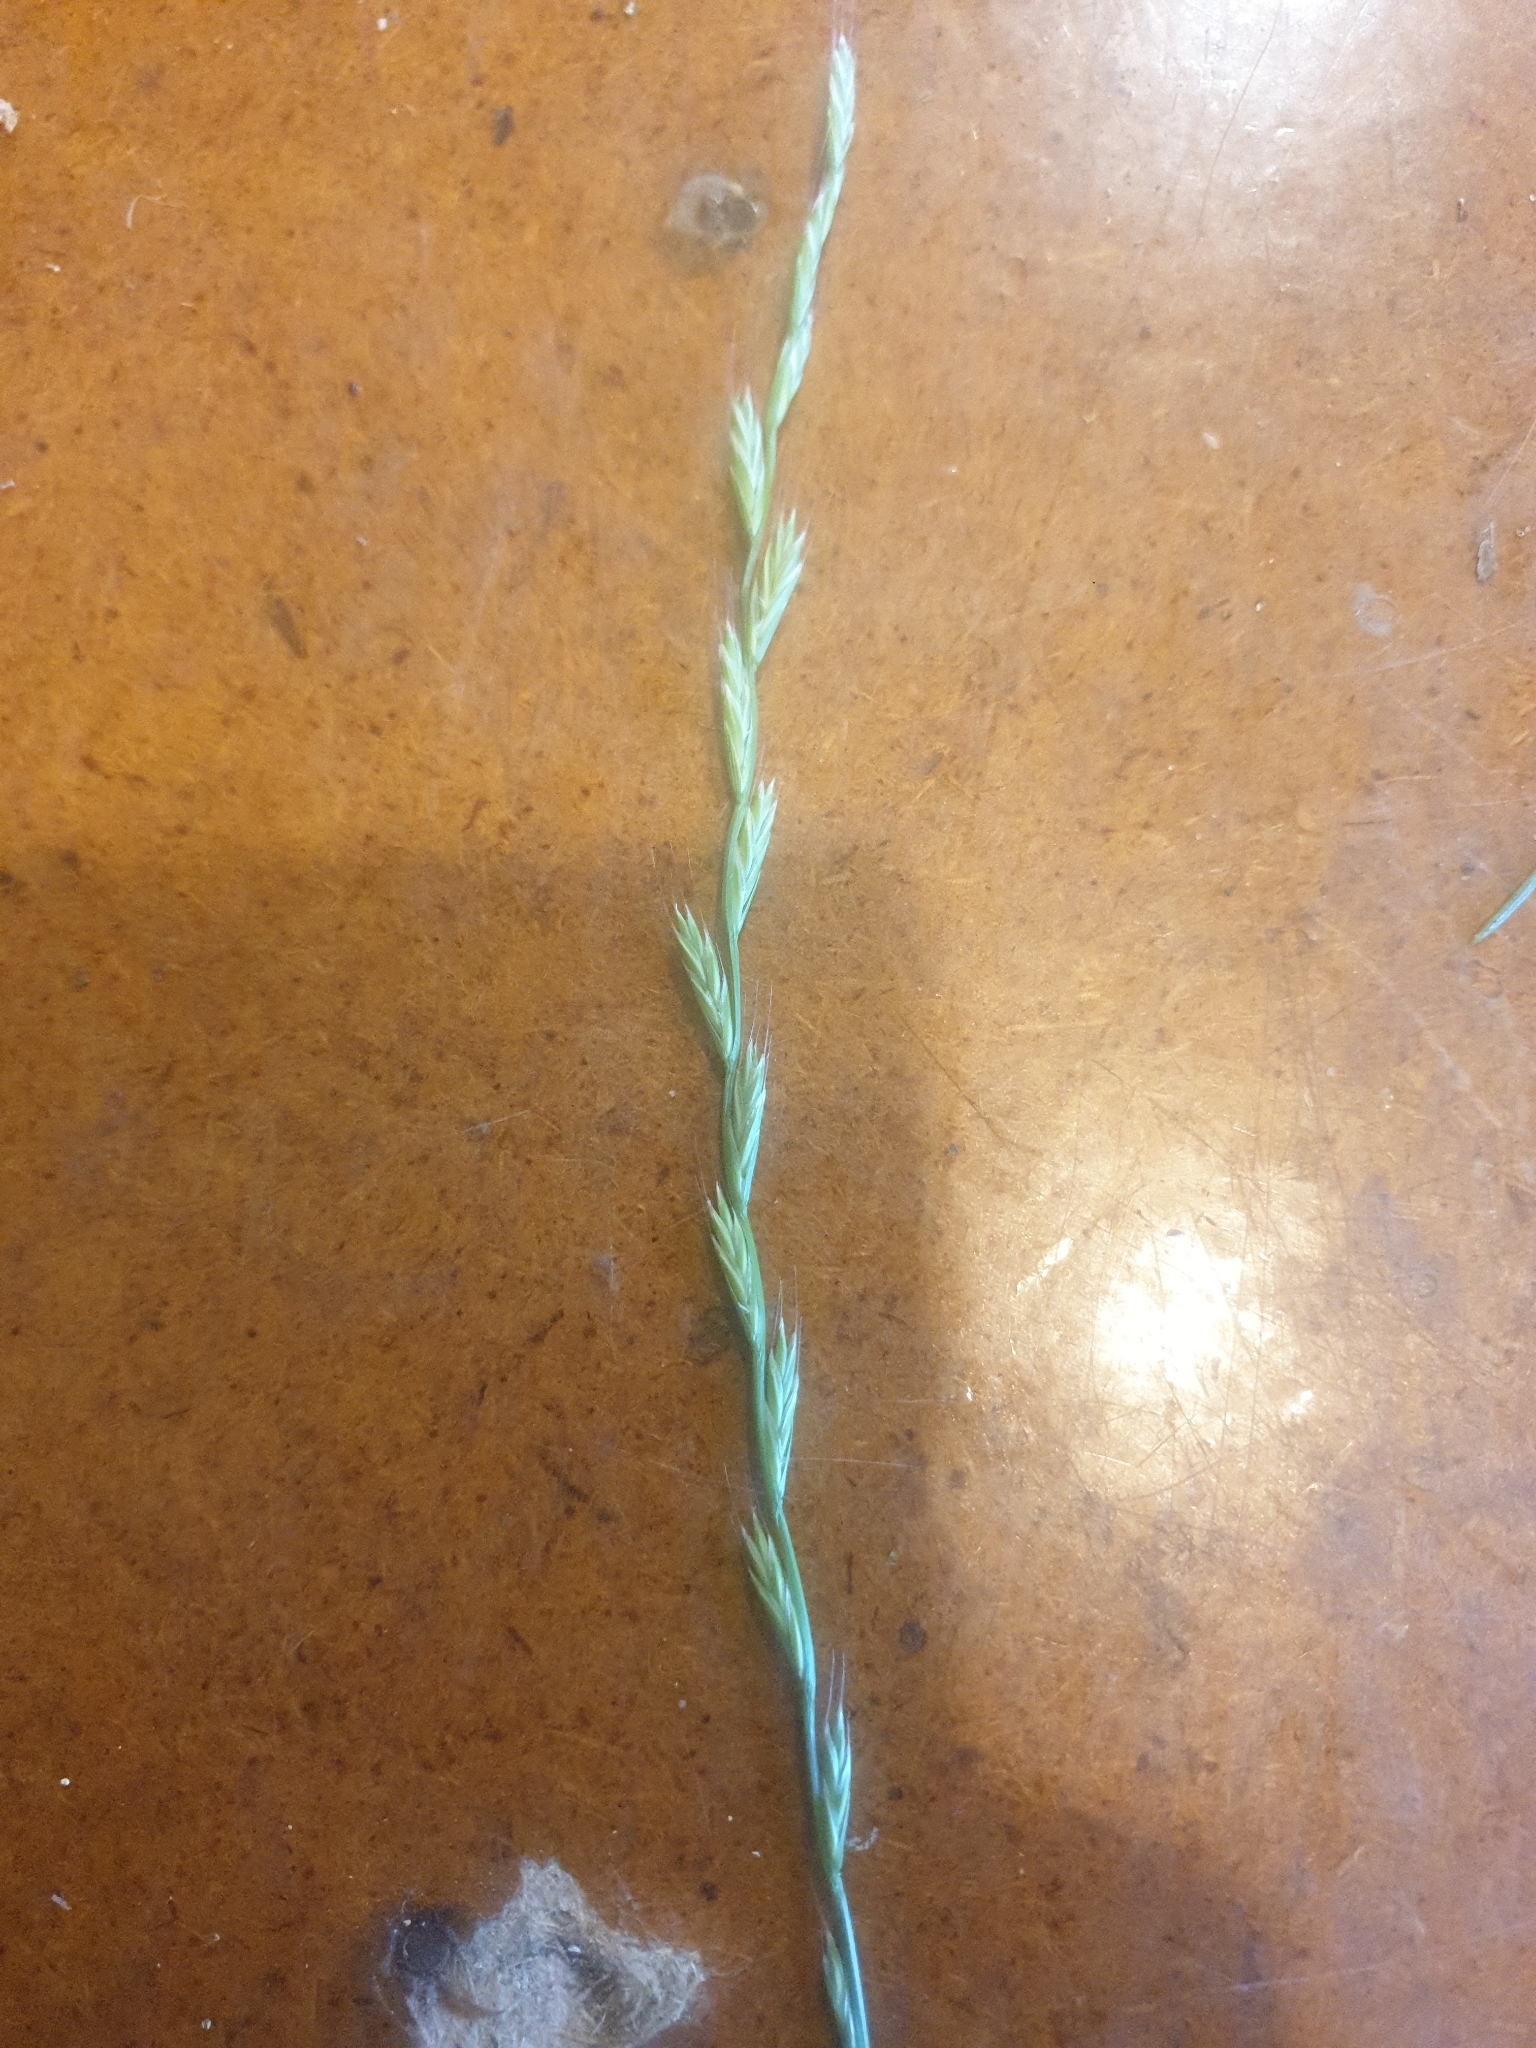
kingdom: Plantae
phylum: Tracheophyta
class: Liliopsida
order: Poales
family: Poaceae
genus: Lolium
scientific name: Lolium multiflorum
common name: Annual ryegrass
